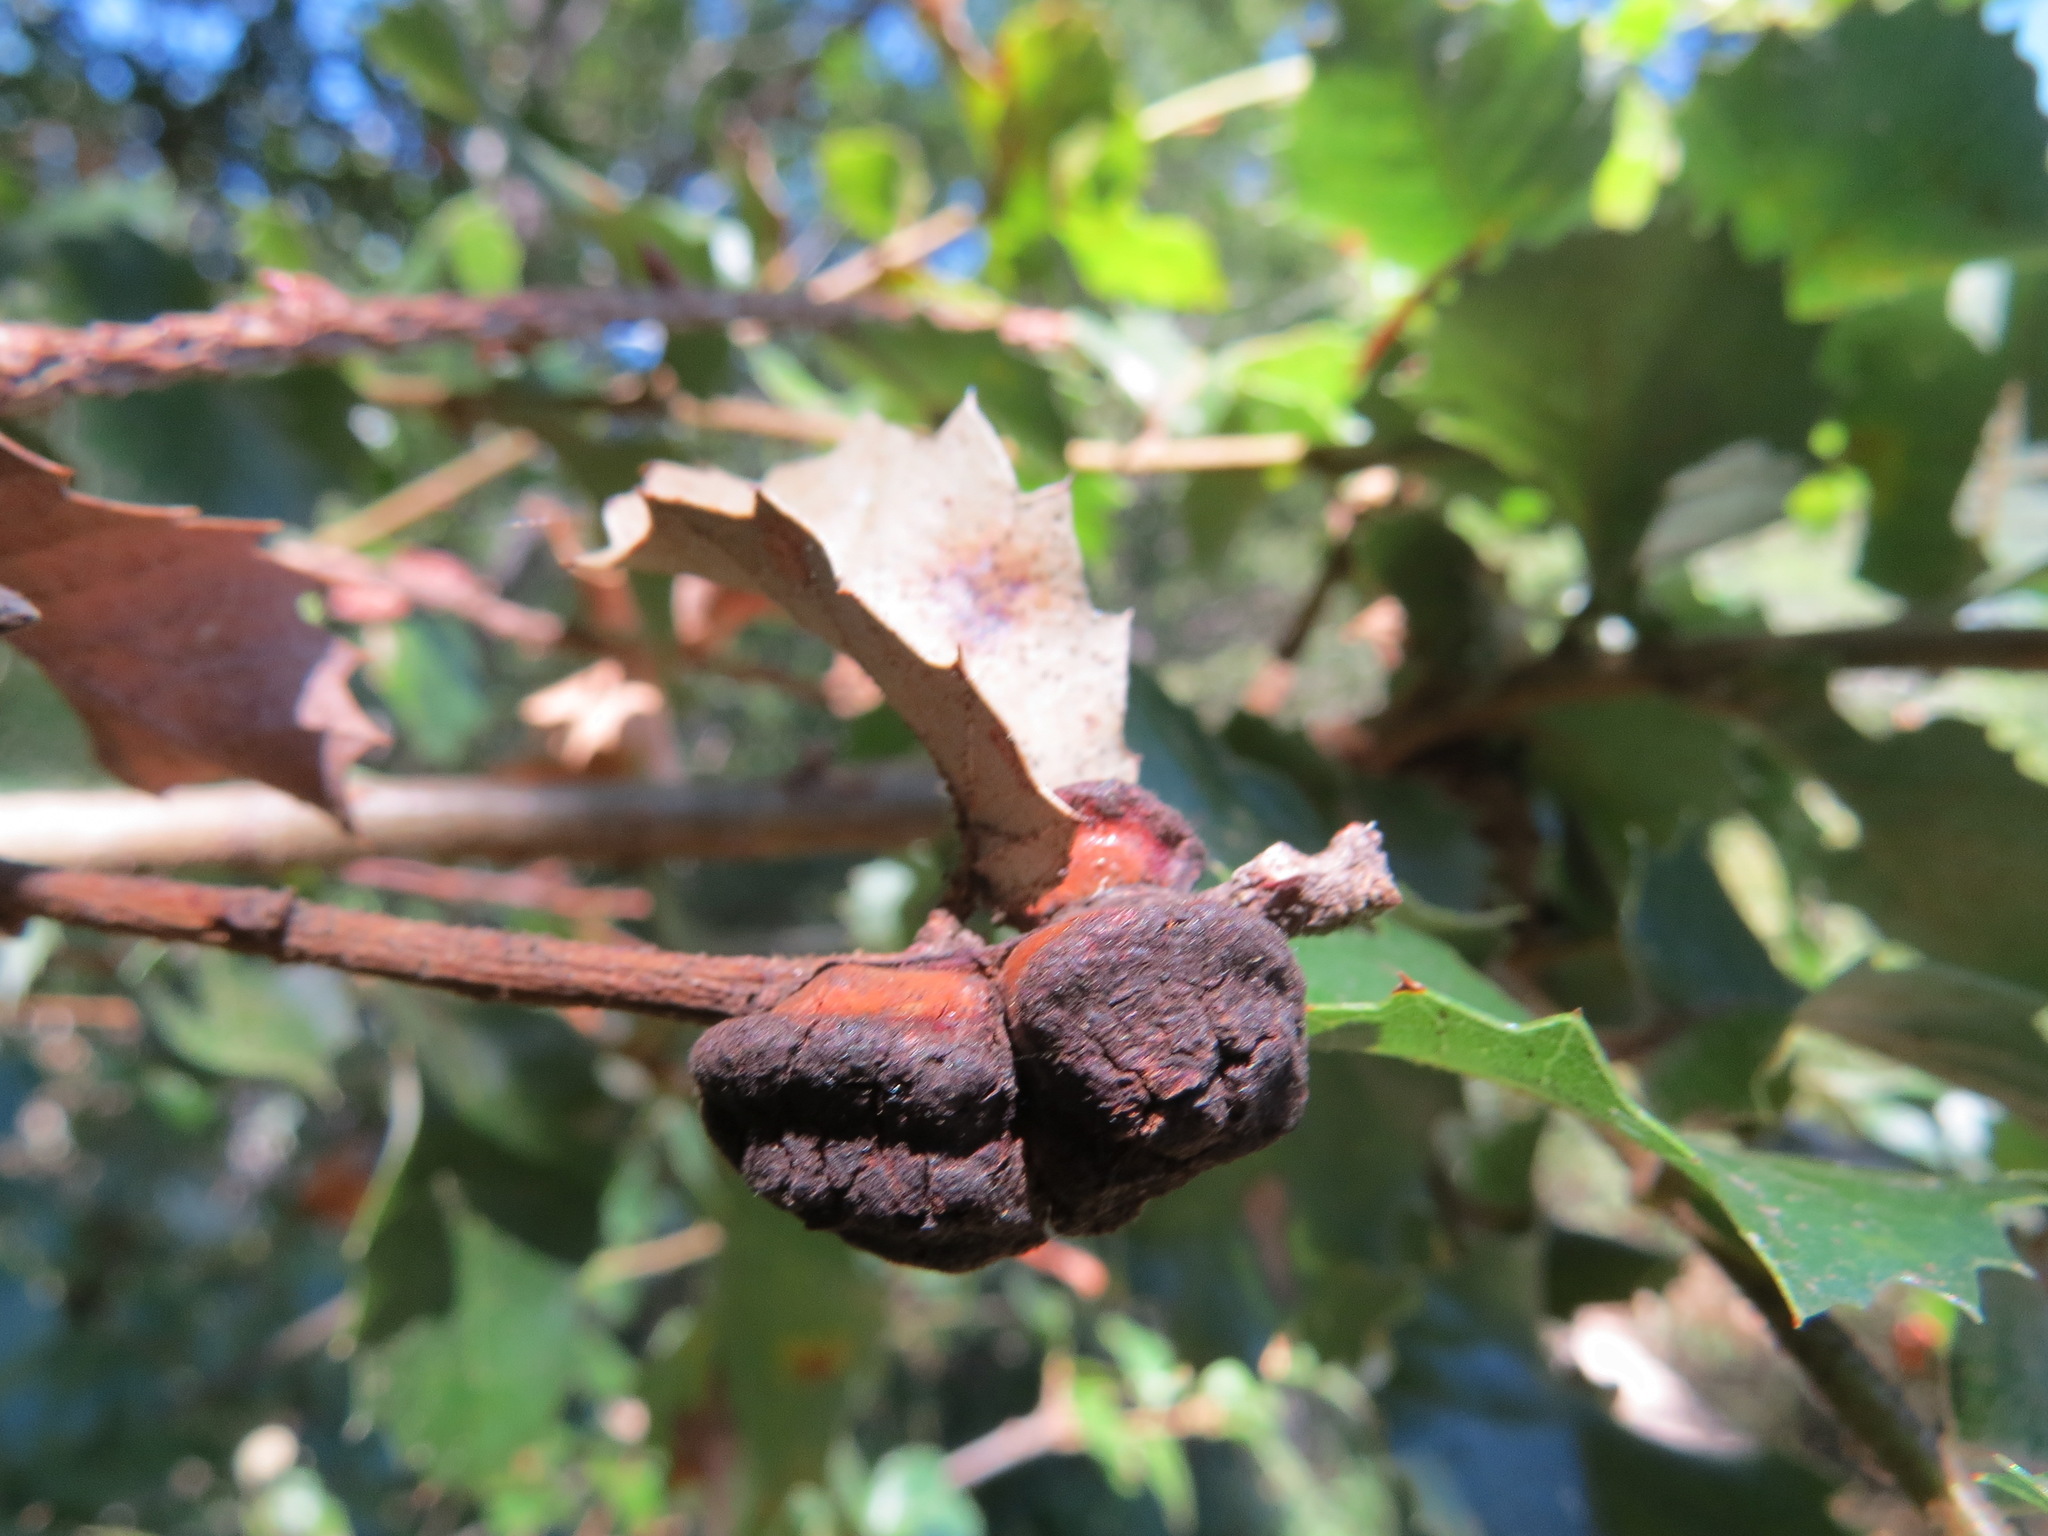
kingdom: Animalia
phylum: Arthropoda
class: Insecta
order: Hymenoptera
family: Cynipidae
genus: Disholandricus
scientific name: Disholandricus
